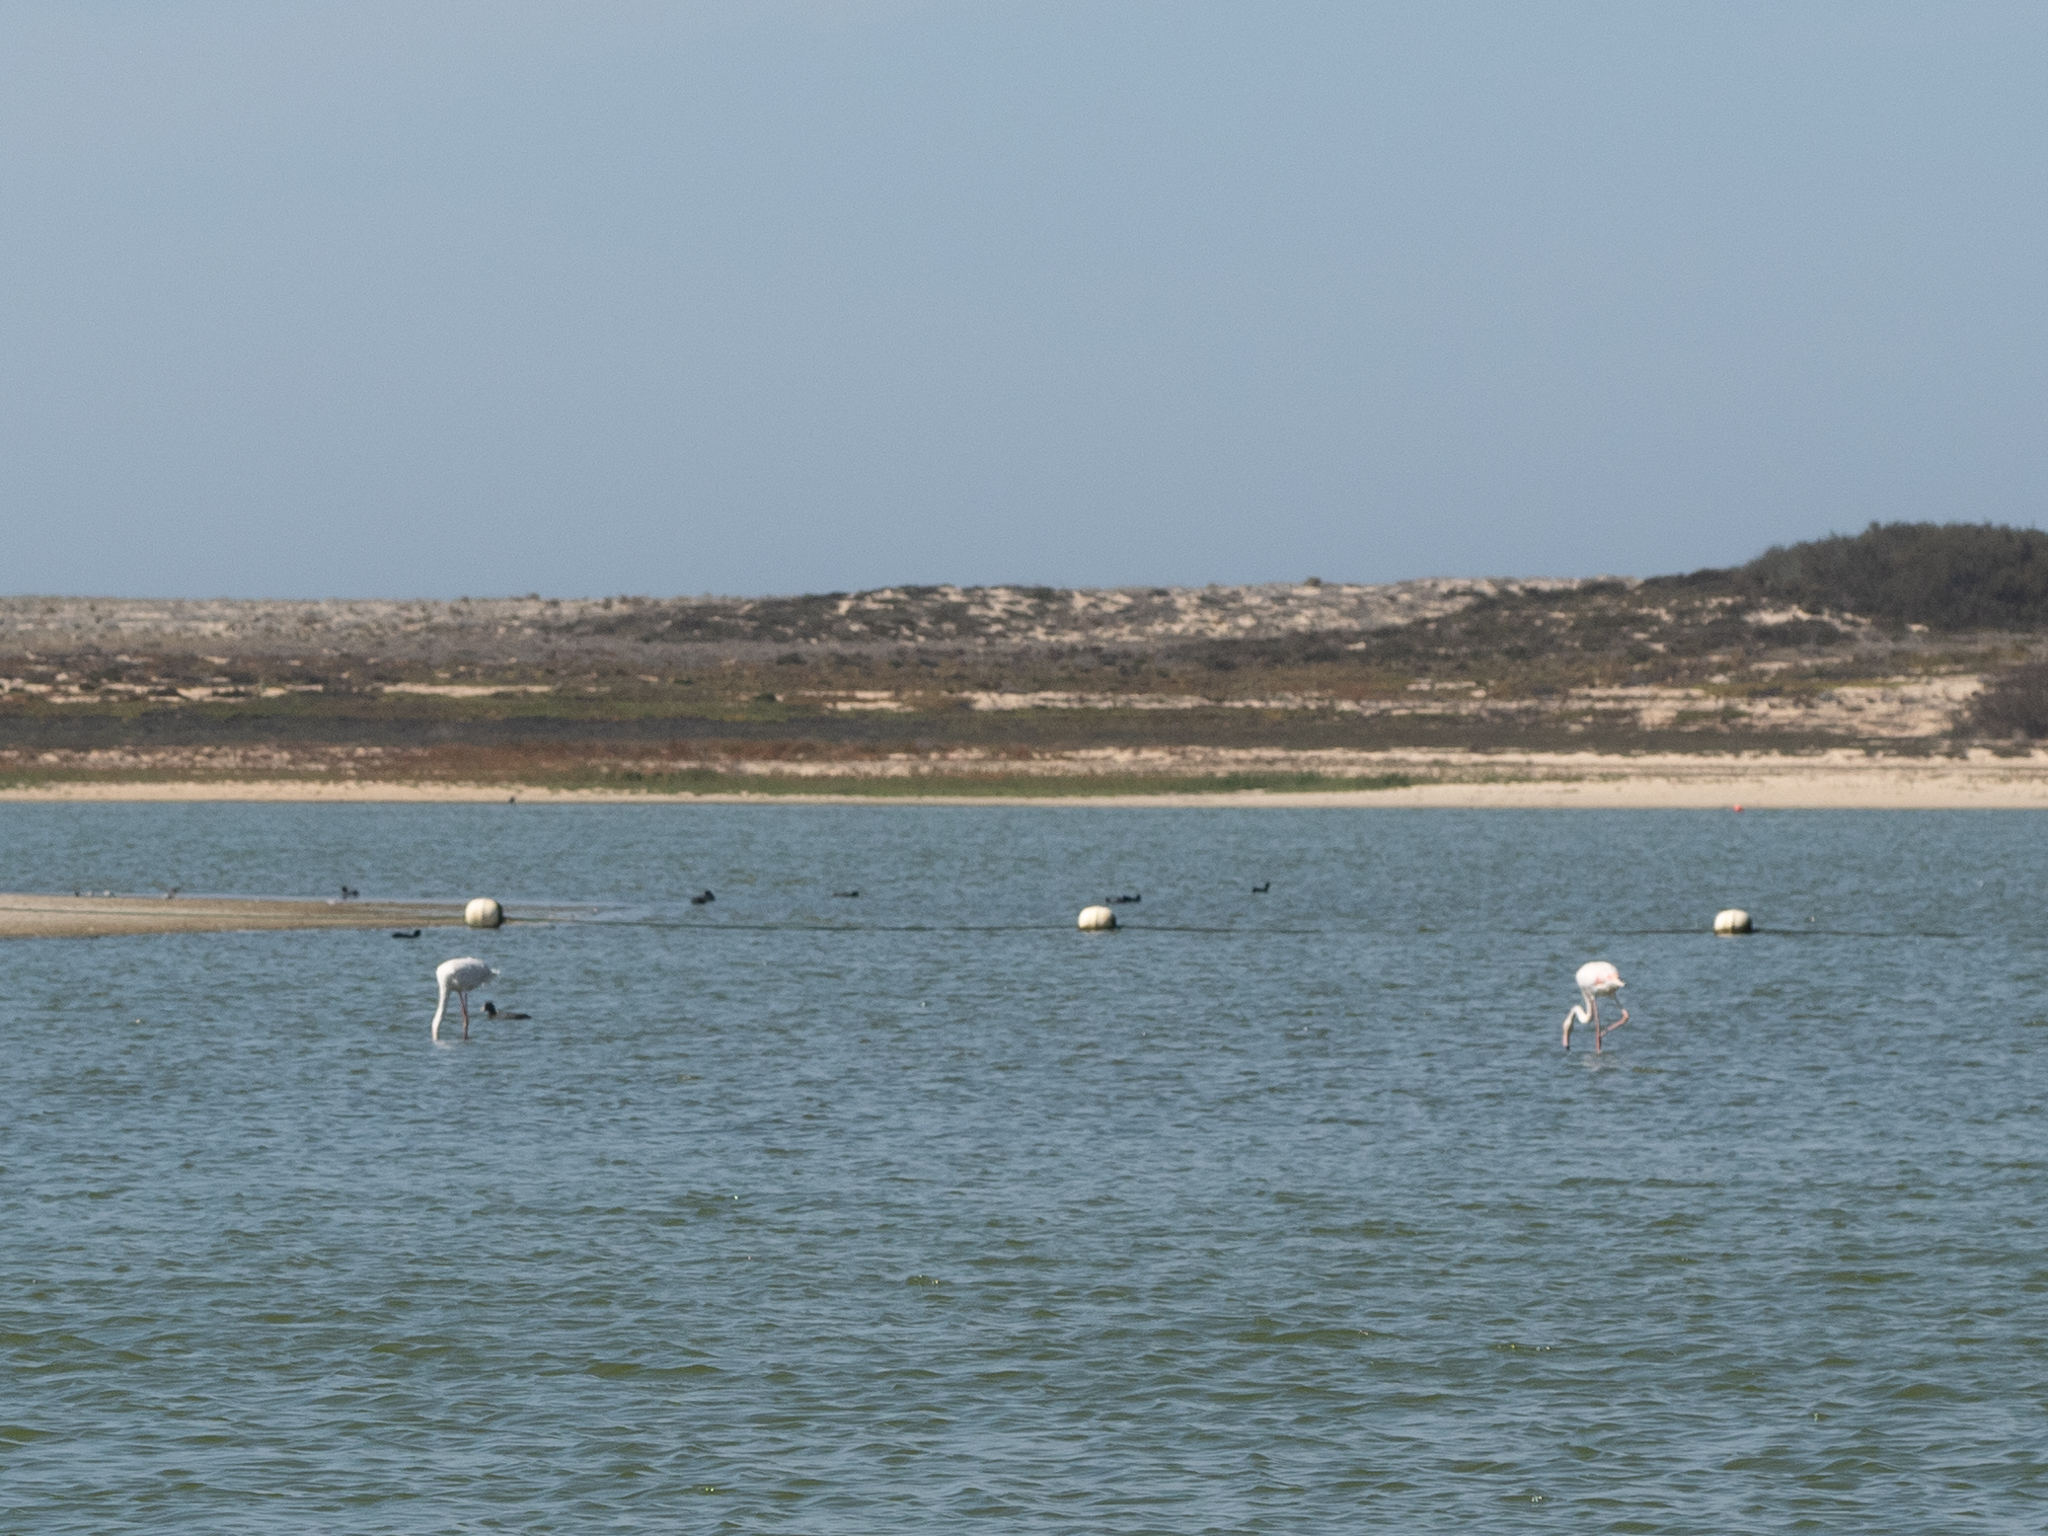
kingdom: Animalia
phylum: Chordata
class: Aves
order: Phoenicopteriformes
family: Phoenicopteridae
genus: Phoenicopterus
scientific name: Phoenicopterus roseus
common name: Greater flamingo
